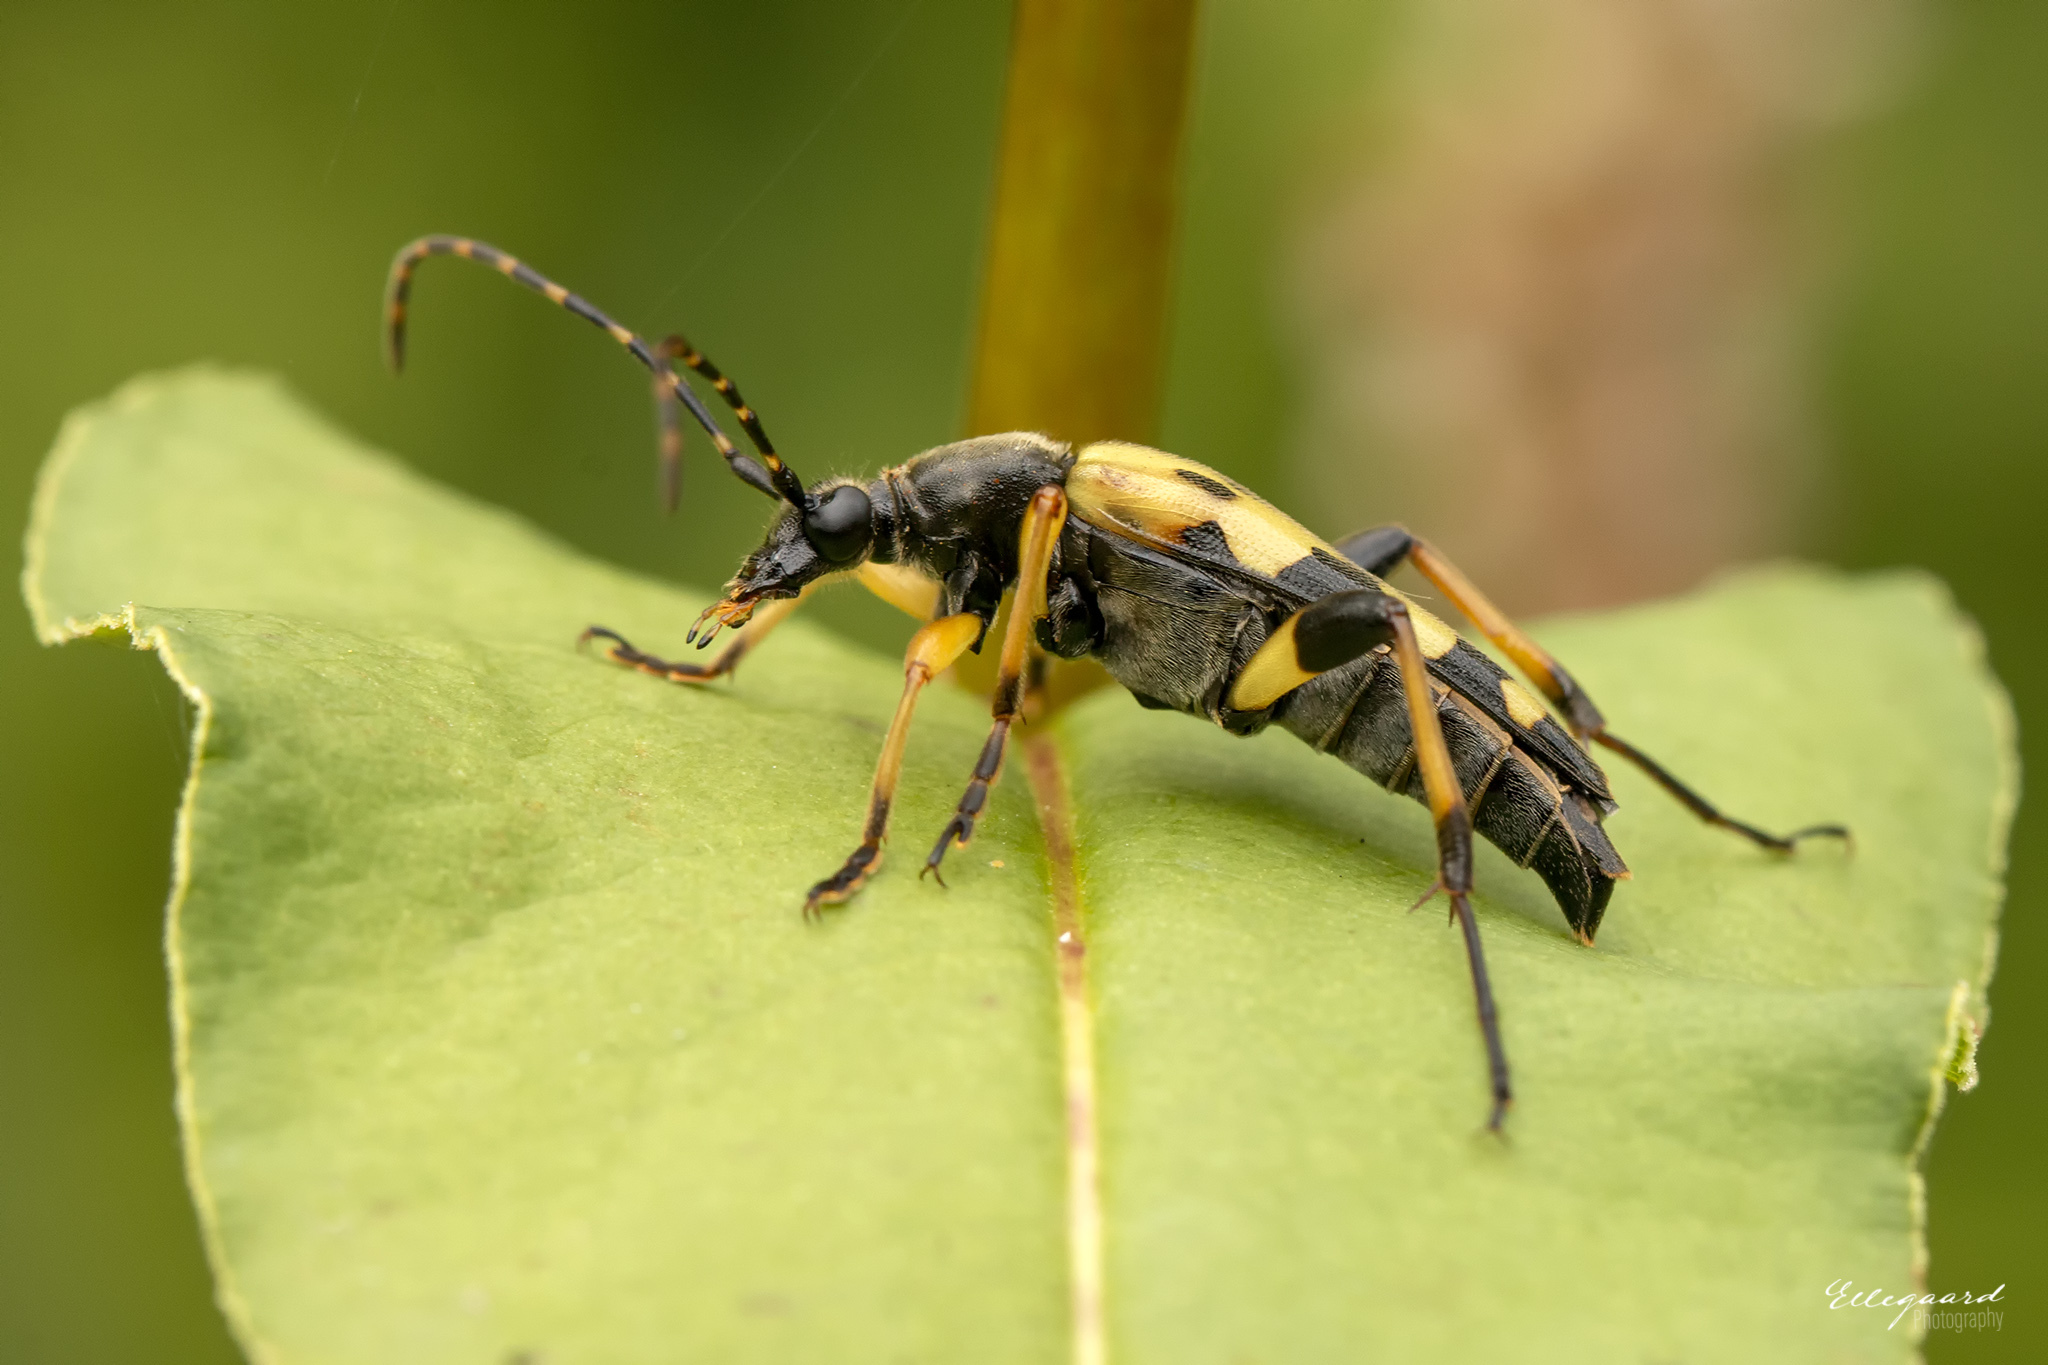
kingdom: Animalia
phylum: Arthropoda
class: Insecta
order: Coleoptera
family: Cerambycidae
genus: Rutpela
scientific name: Rutpela maculata
